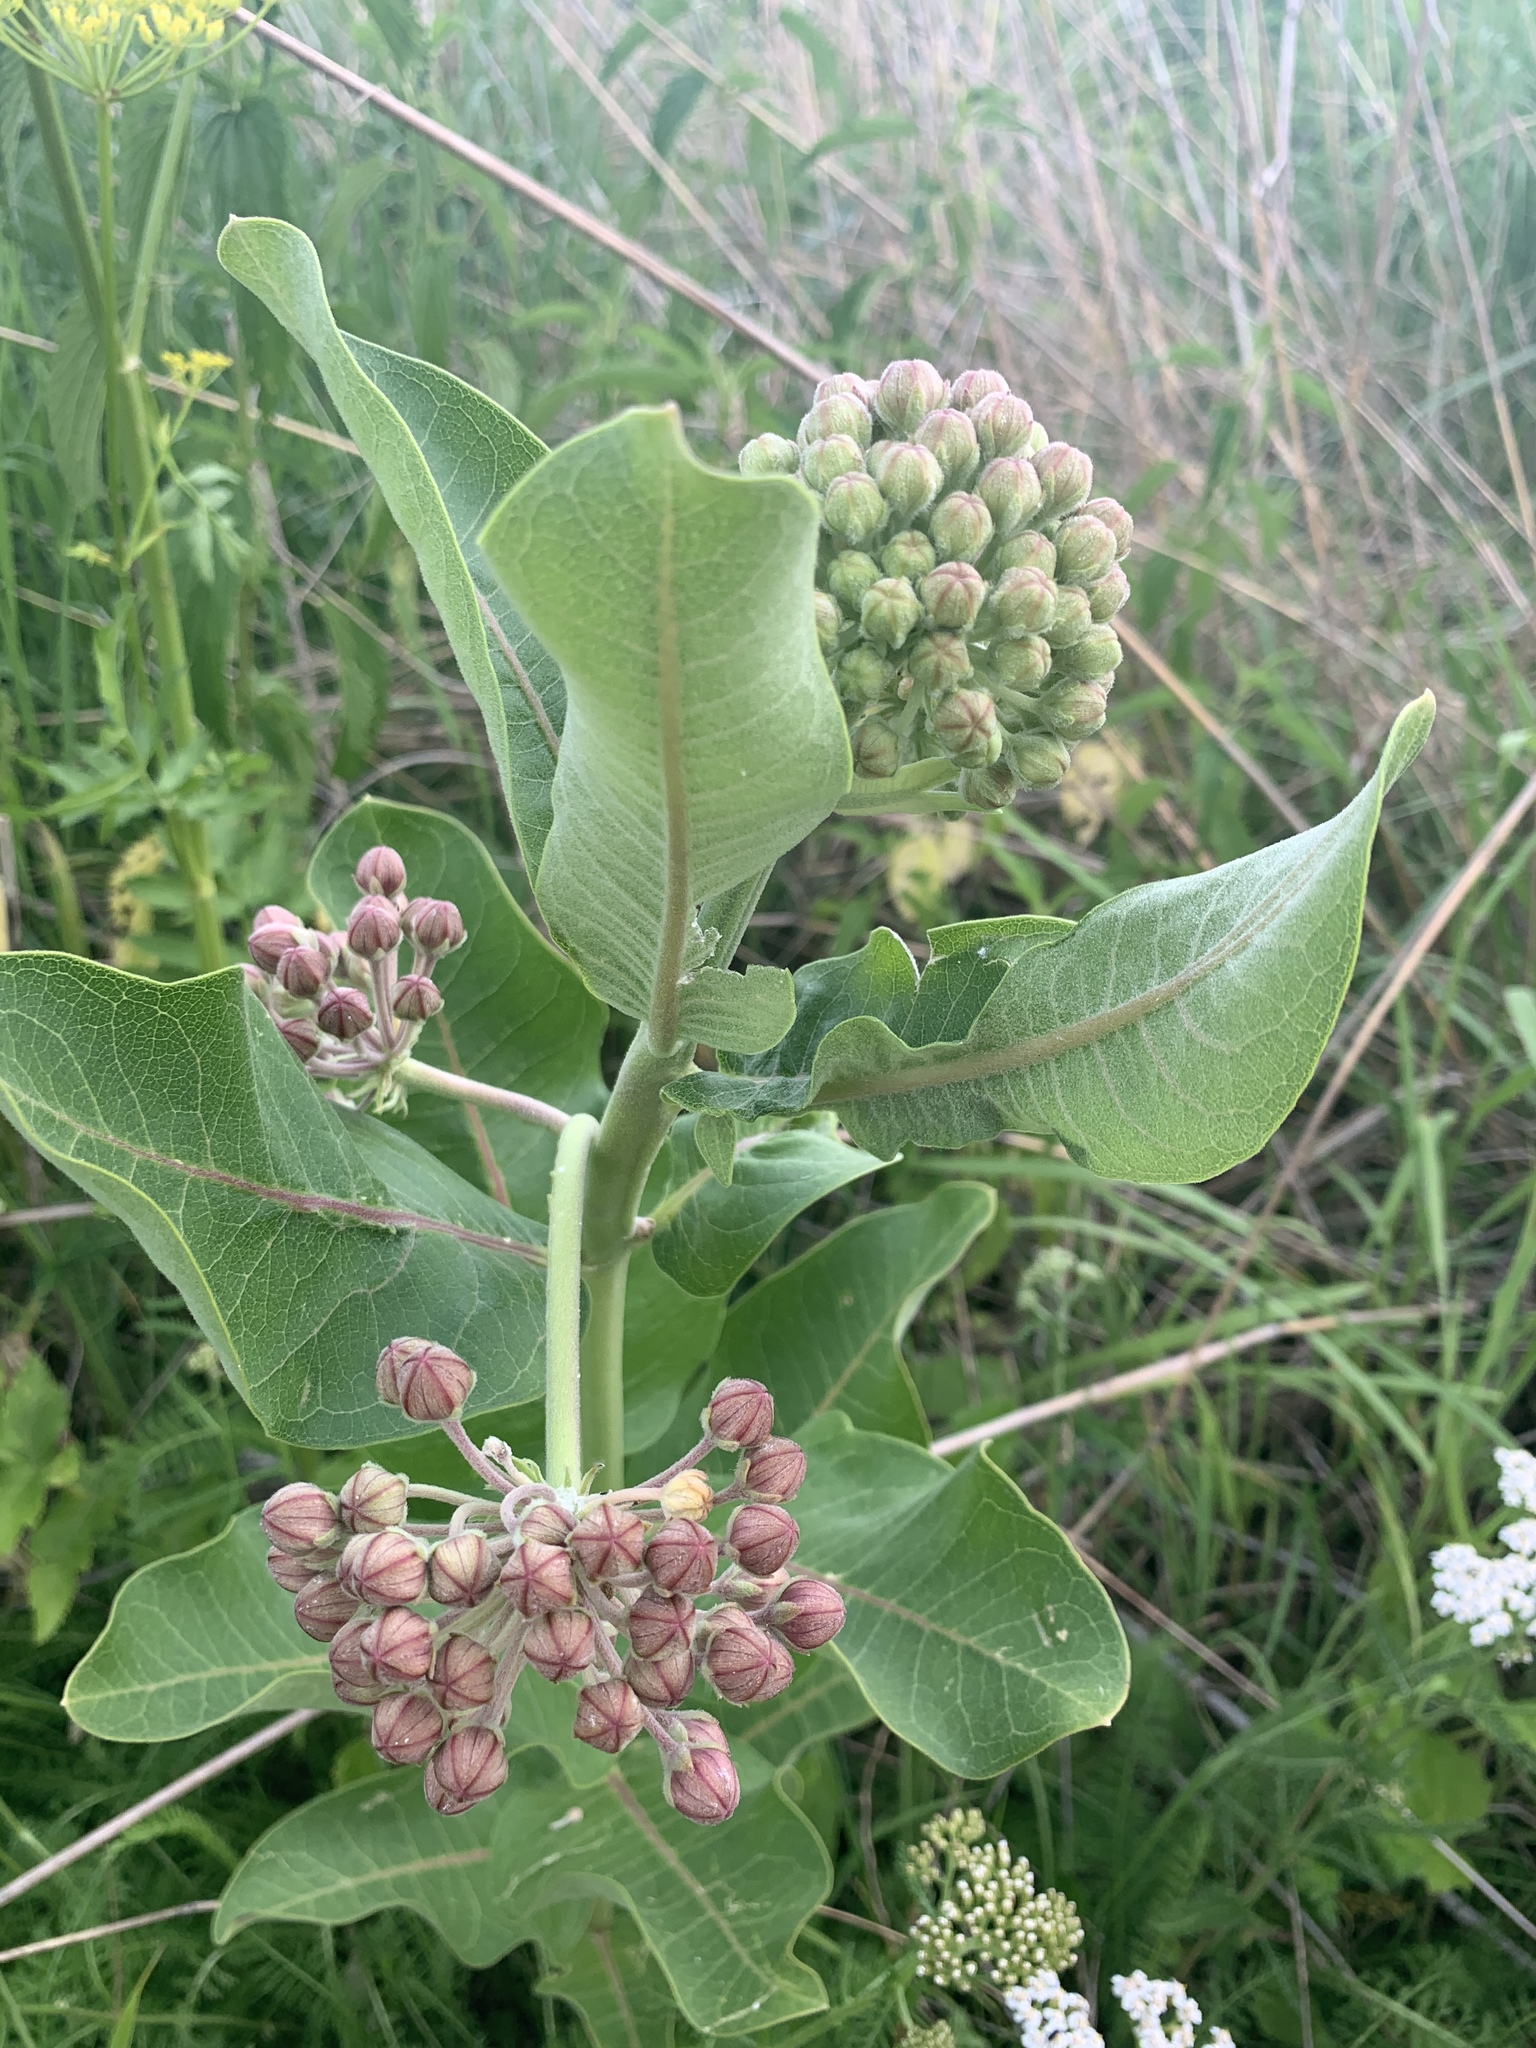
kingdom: Plantae
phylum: Tracheophyta
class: Magnoliopsida
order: Gentianales
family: Apocynaceae
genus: Asclepias
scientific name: Asclepias syriaca
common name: Common milkweed
